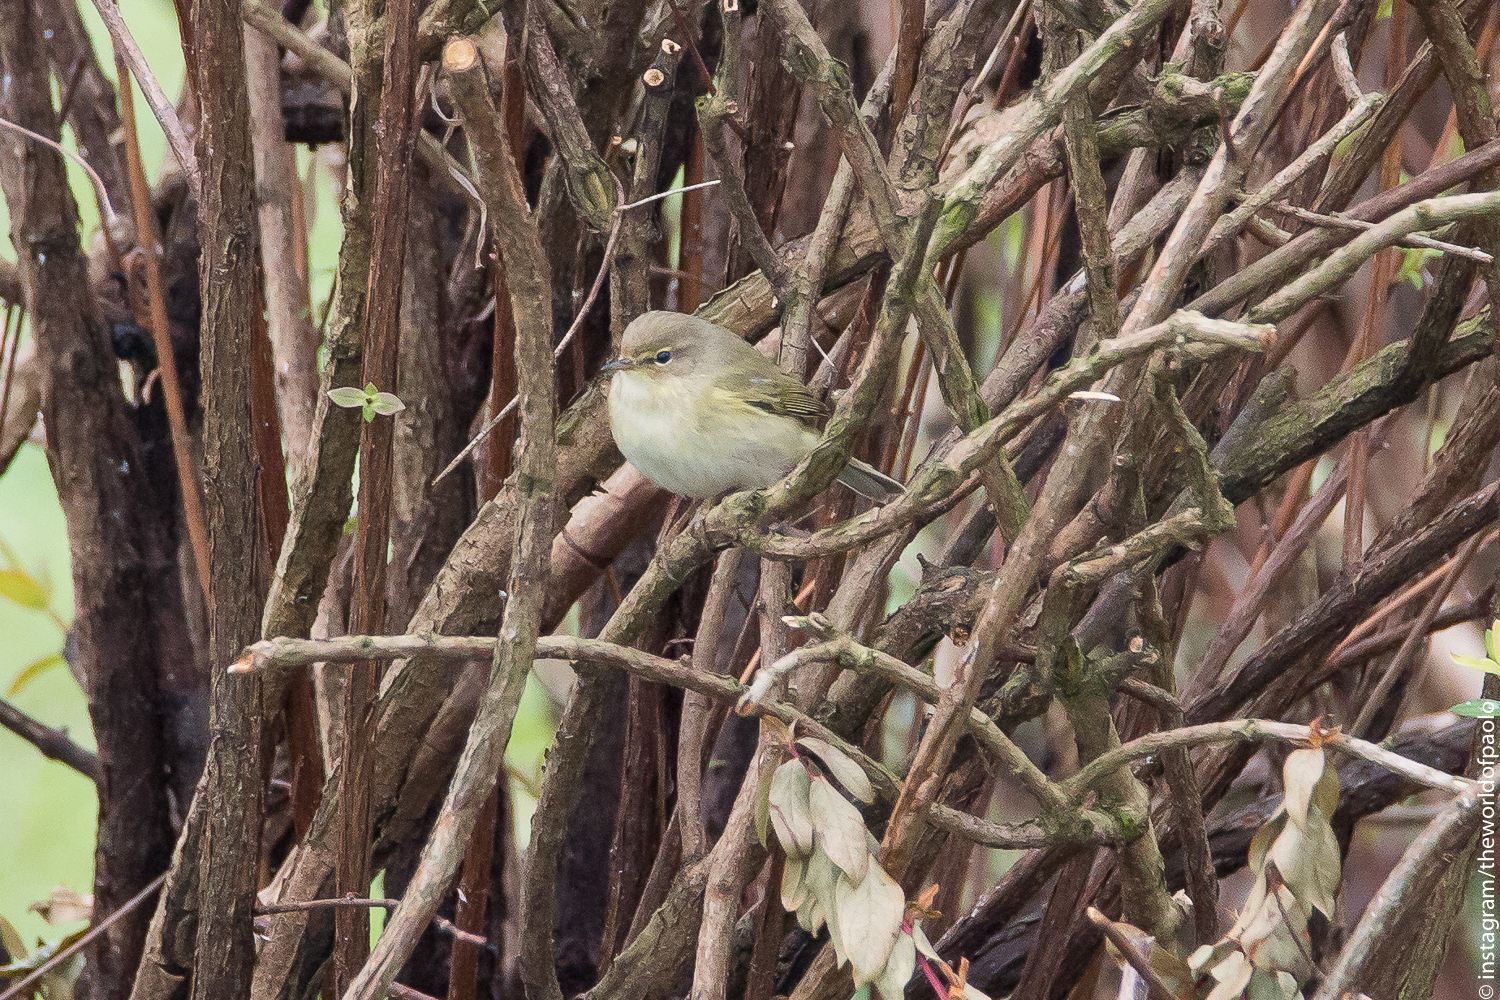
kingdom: Animalia
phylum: Chordata
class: Aves
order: Passeriformes
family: Phylloscopidae
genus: Phylloscopus
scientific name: Phylloscopus trochilus
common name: Willow warbler
